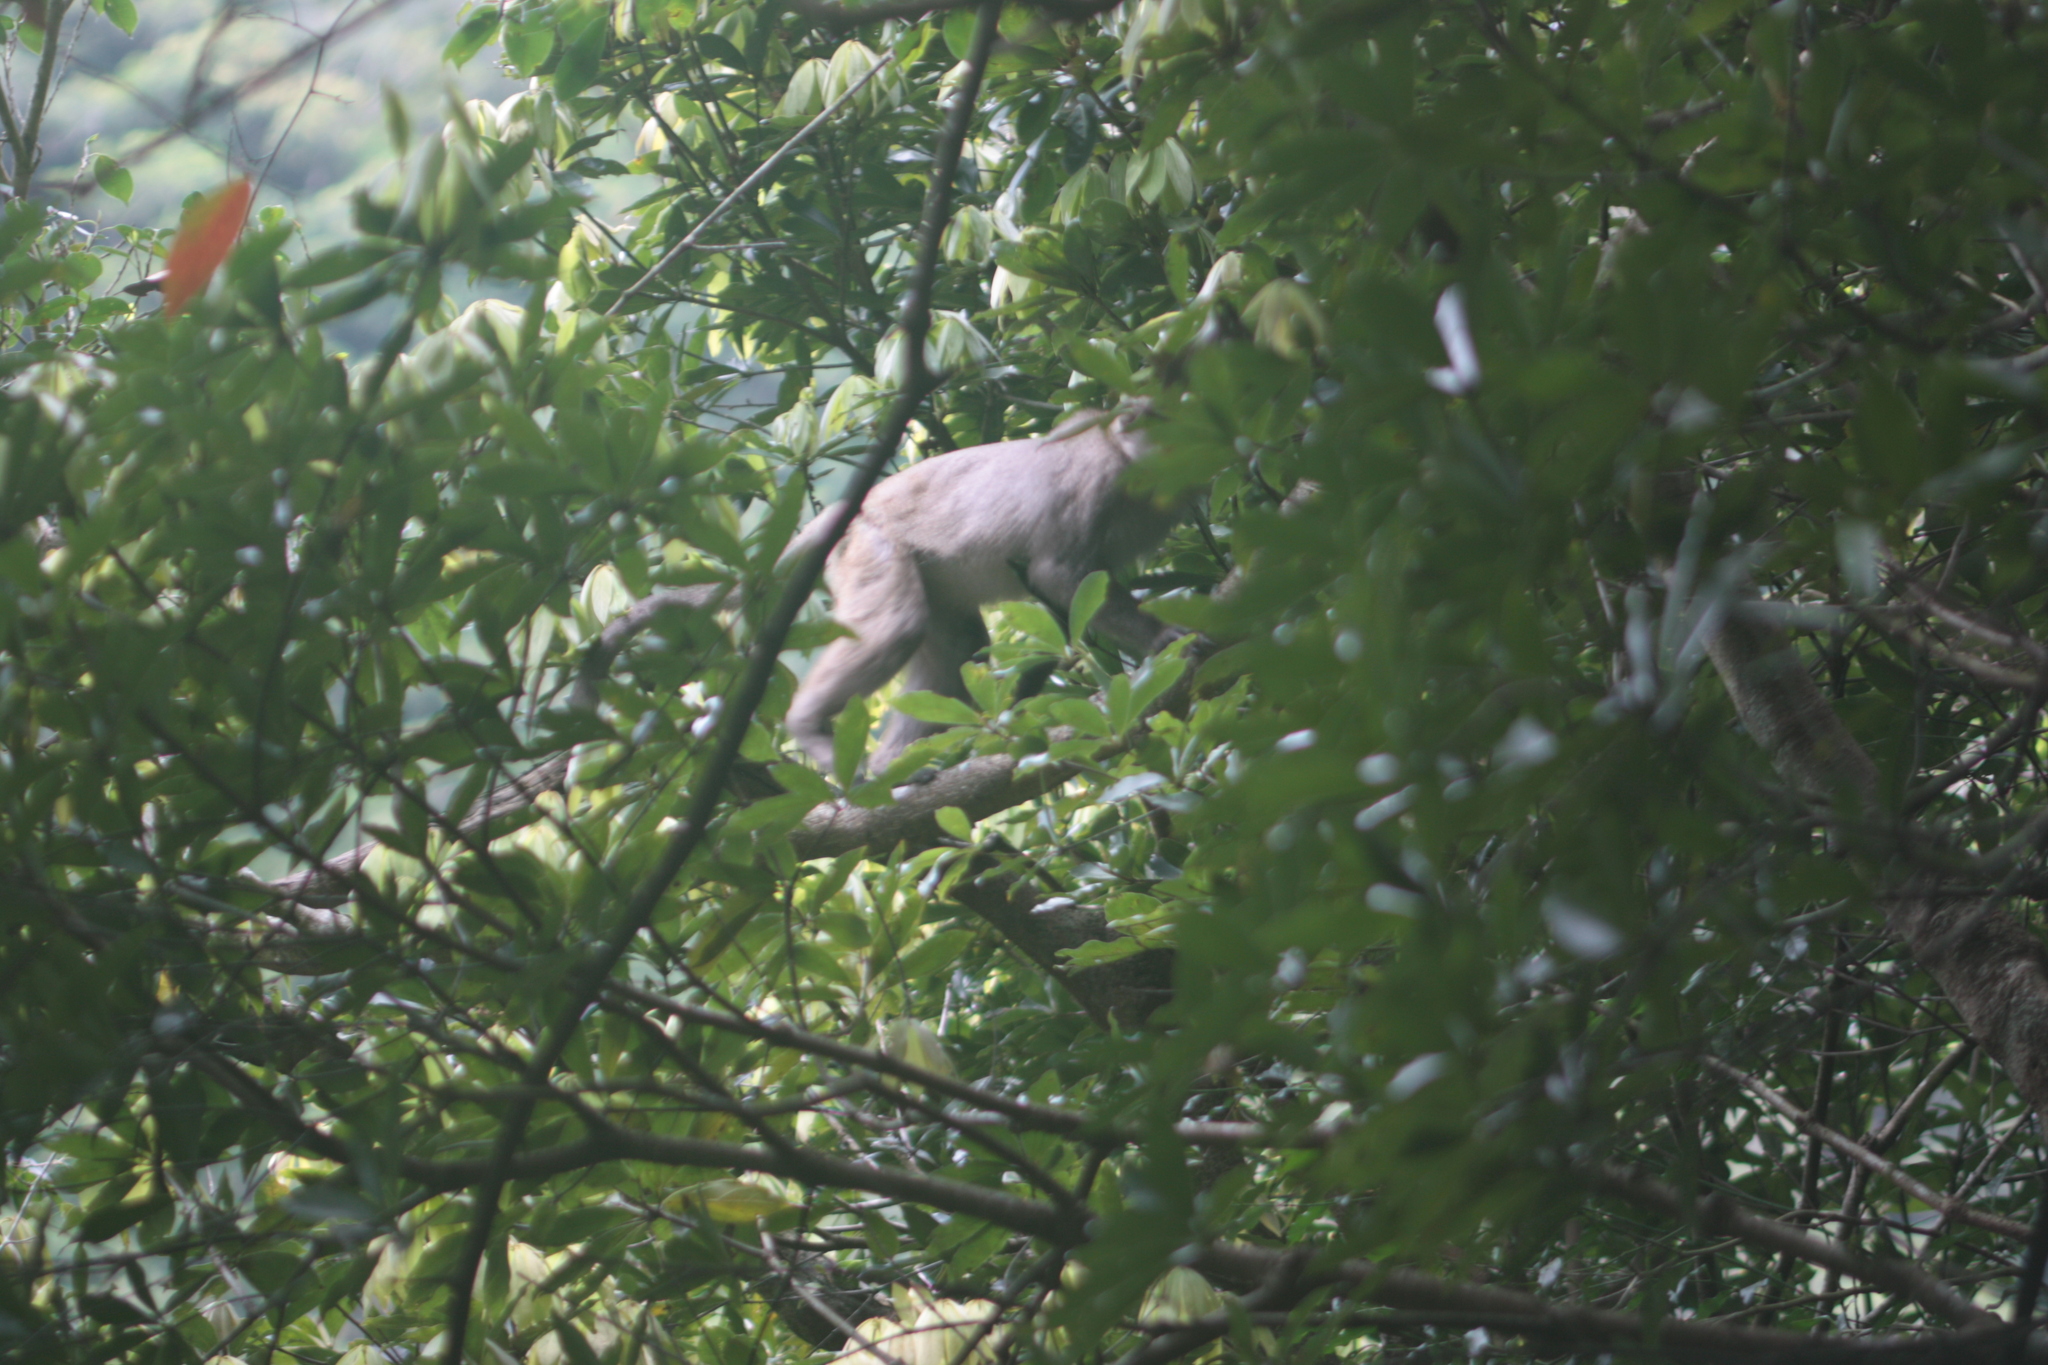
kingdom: Animalia
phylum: Chordata
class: Mammalia
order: Primates
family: Cercopithecidae
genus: Macaca
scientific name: Macaca cyclopis
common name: Formosan rock macaque
